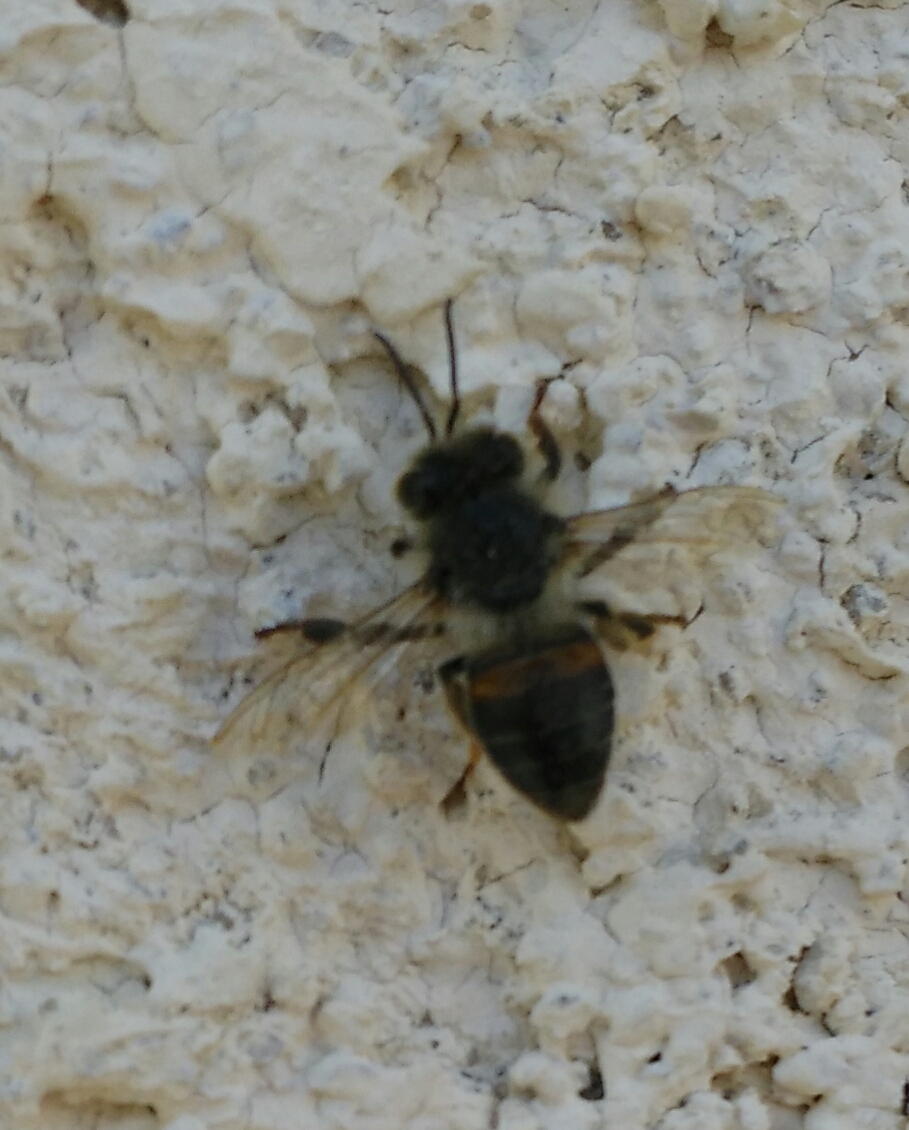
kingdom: Animalia
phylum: Arthropoda
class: Insecta
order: Hymenoptera
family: Apidae
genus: Apis
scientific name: Apis mellifera
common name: Honey bee
